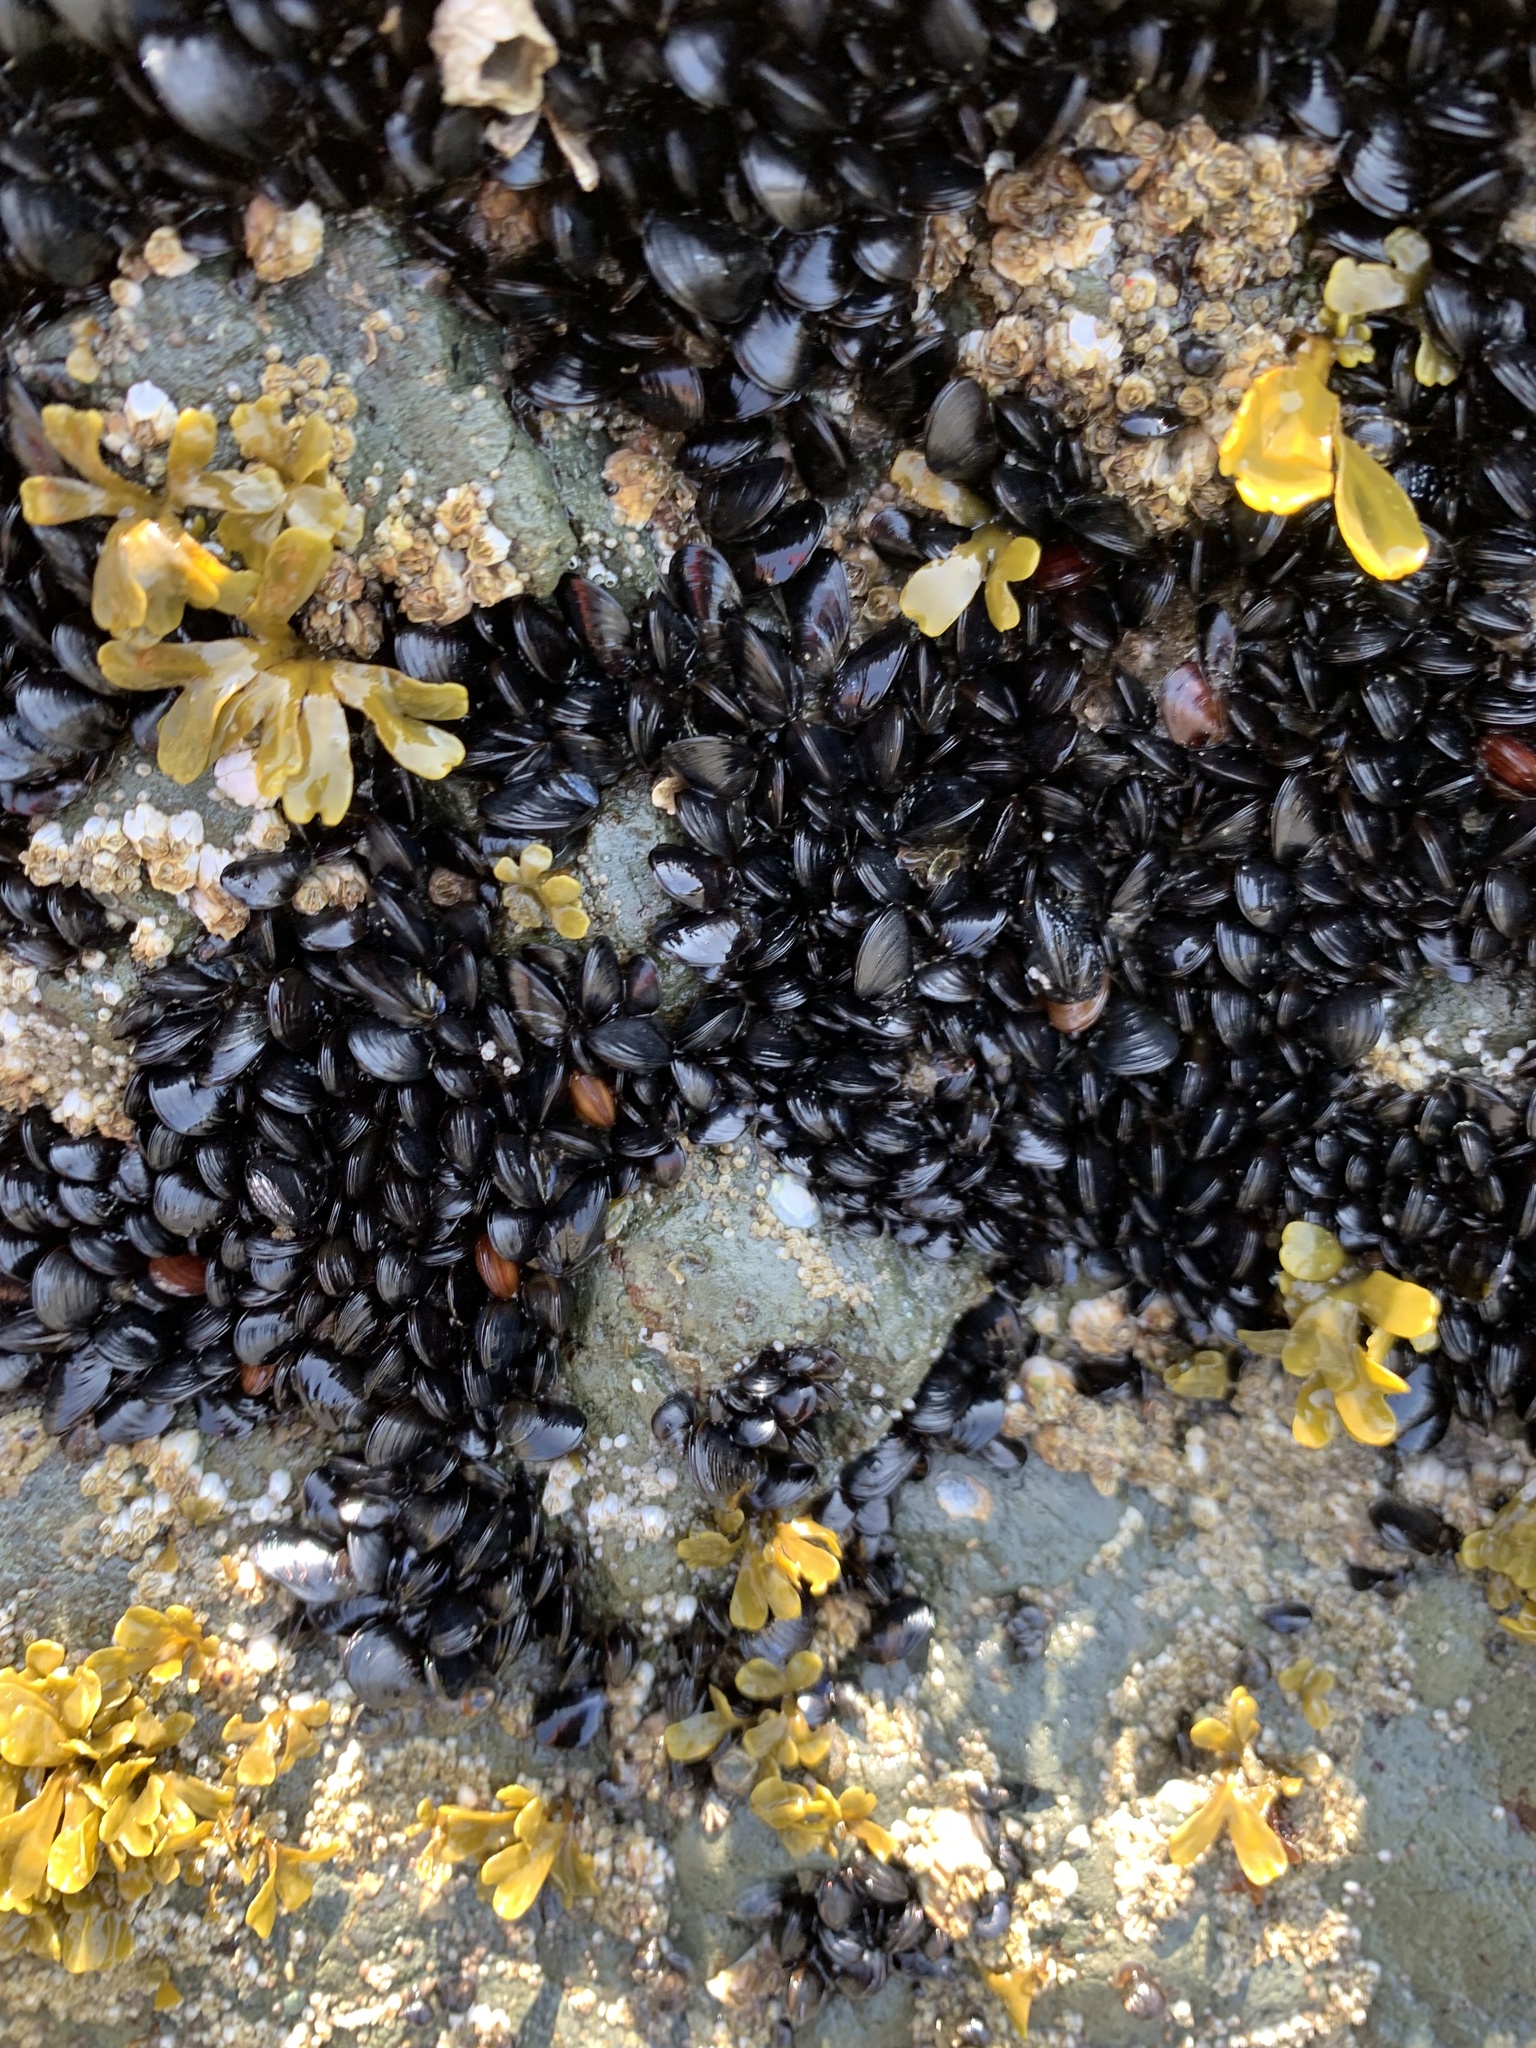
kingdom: Animalia
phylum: Mollusca
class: Bivalvia
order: Mytilida
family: Mytilidae
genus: Mytilus
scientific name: Mytilus trossulus
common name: Northern blue mussel
